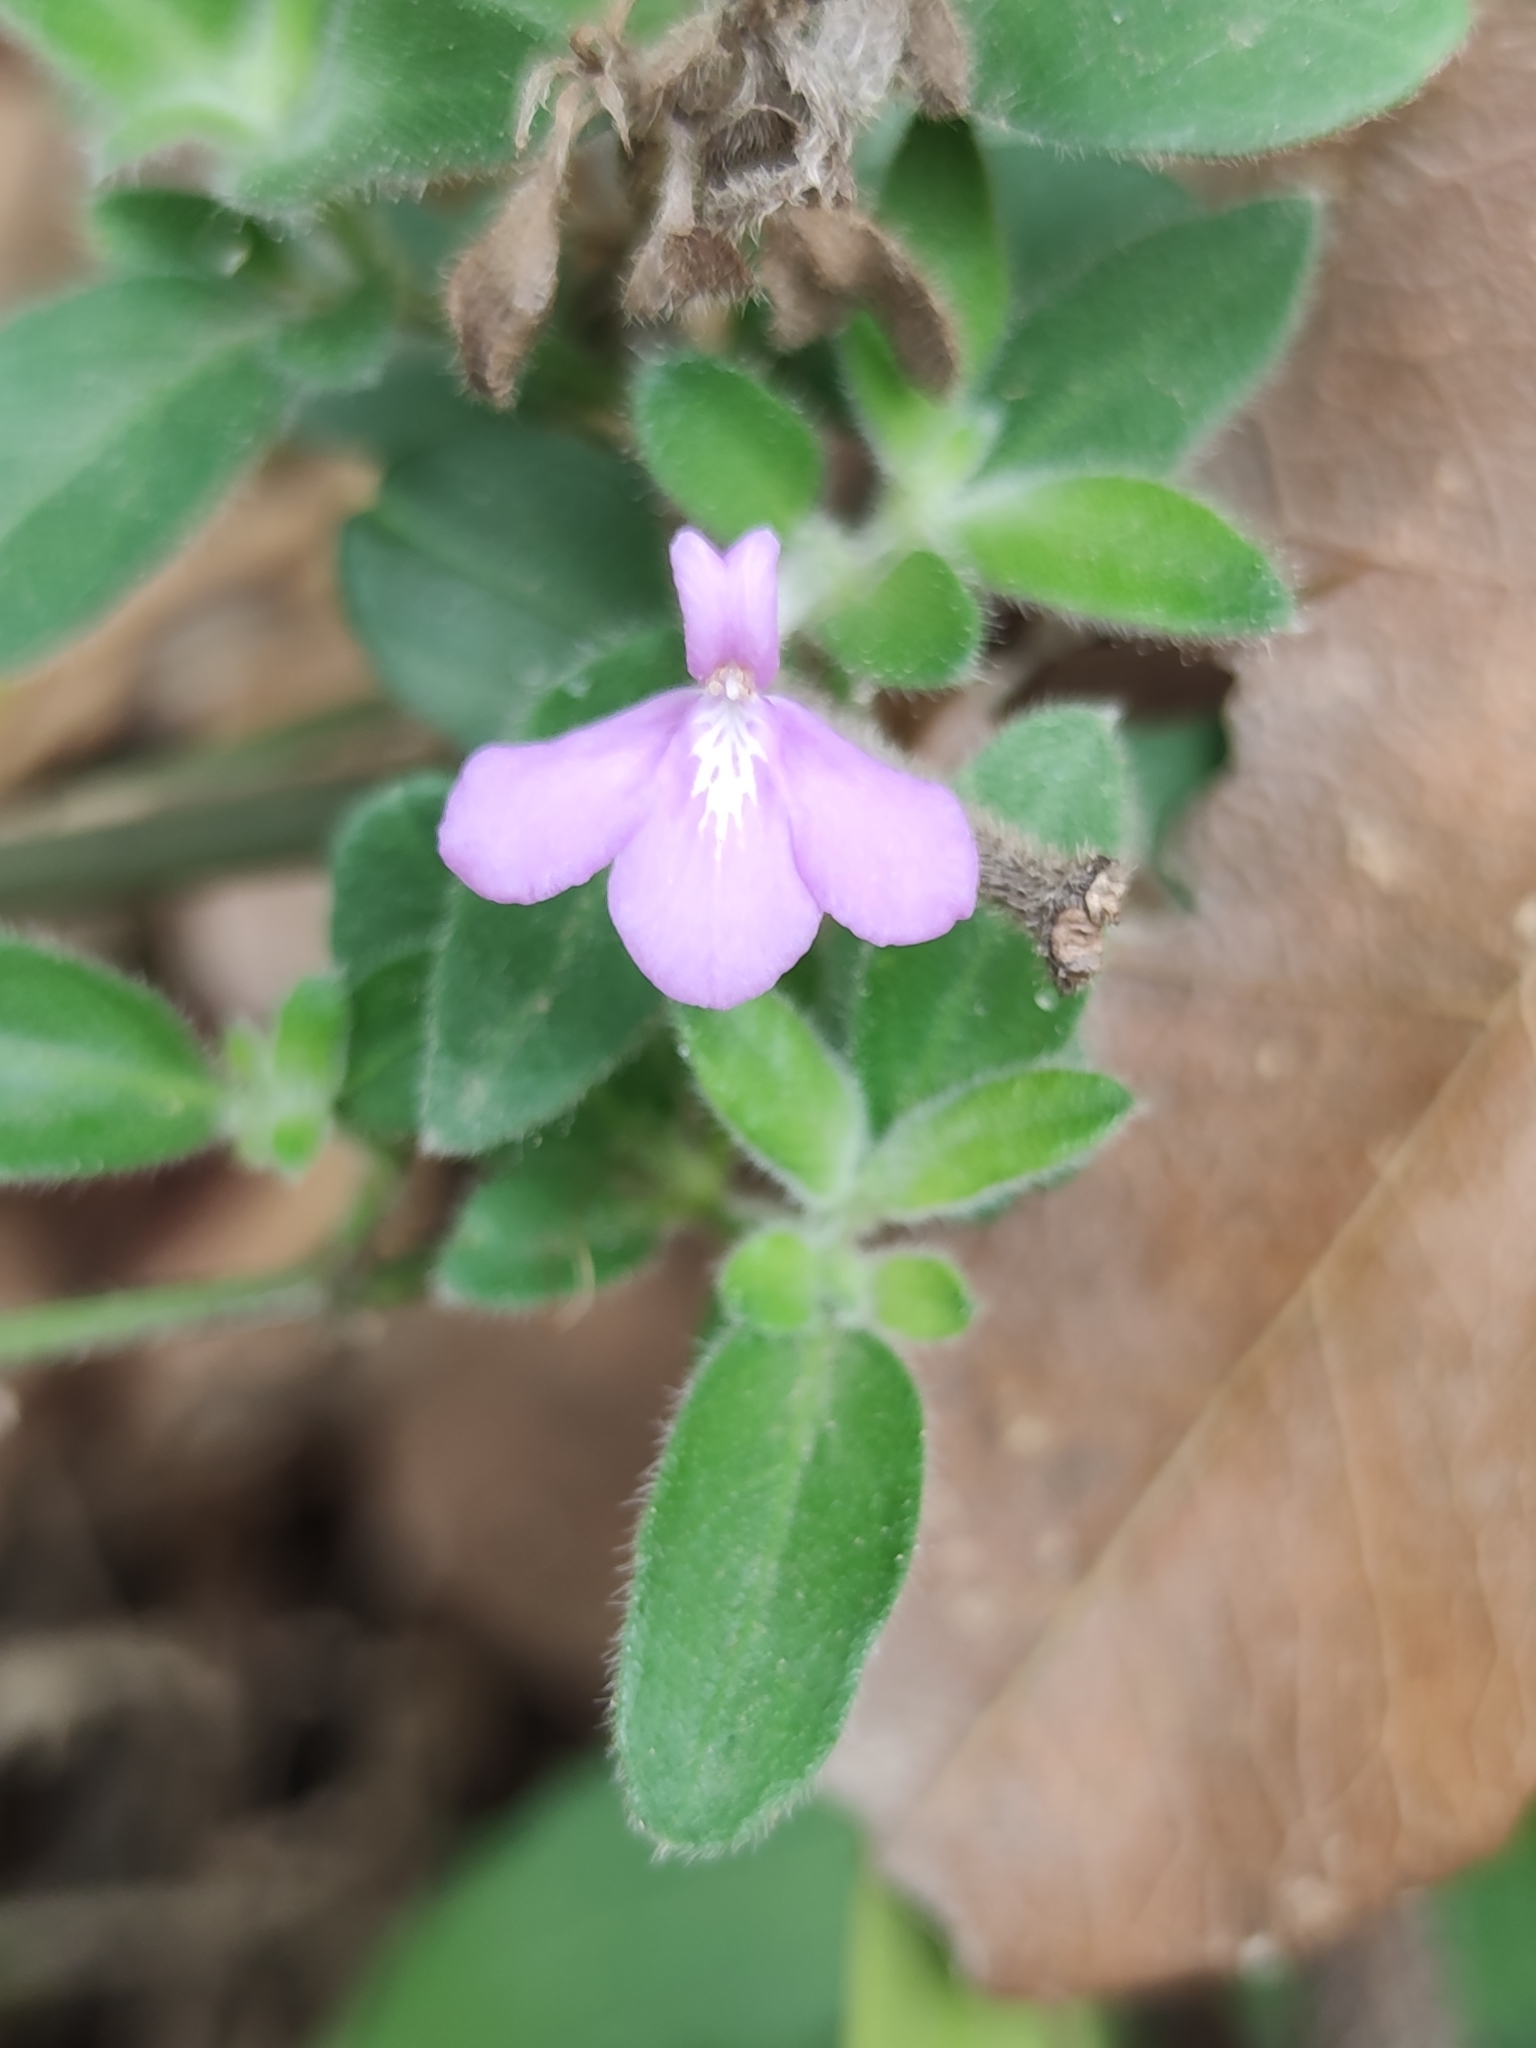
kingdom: Plantae
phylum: Tracheophyta
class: Magnoliopsida
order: Lamiales
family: Acanthaceae
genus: Justicia
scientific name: Justicia hintoniorum
